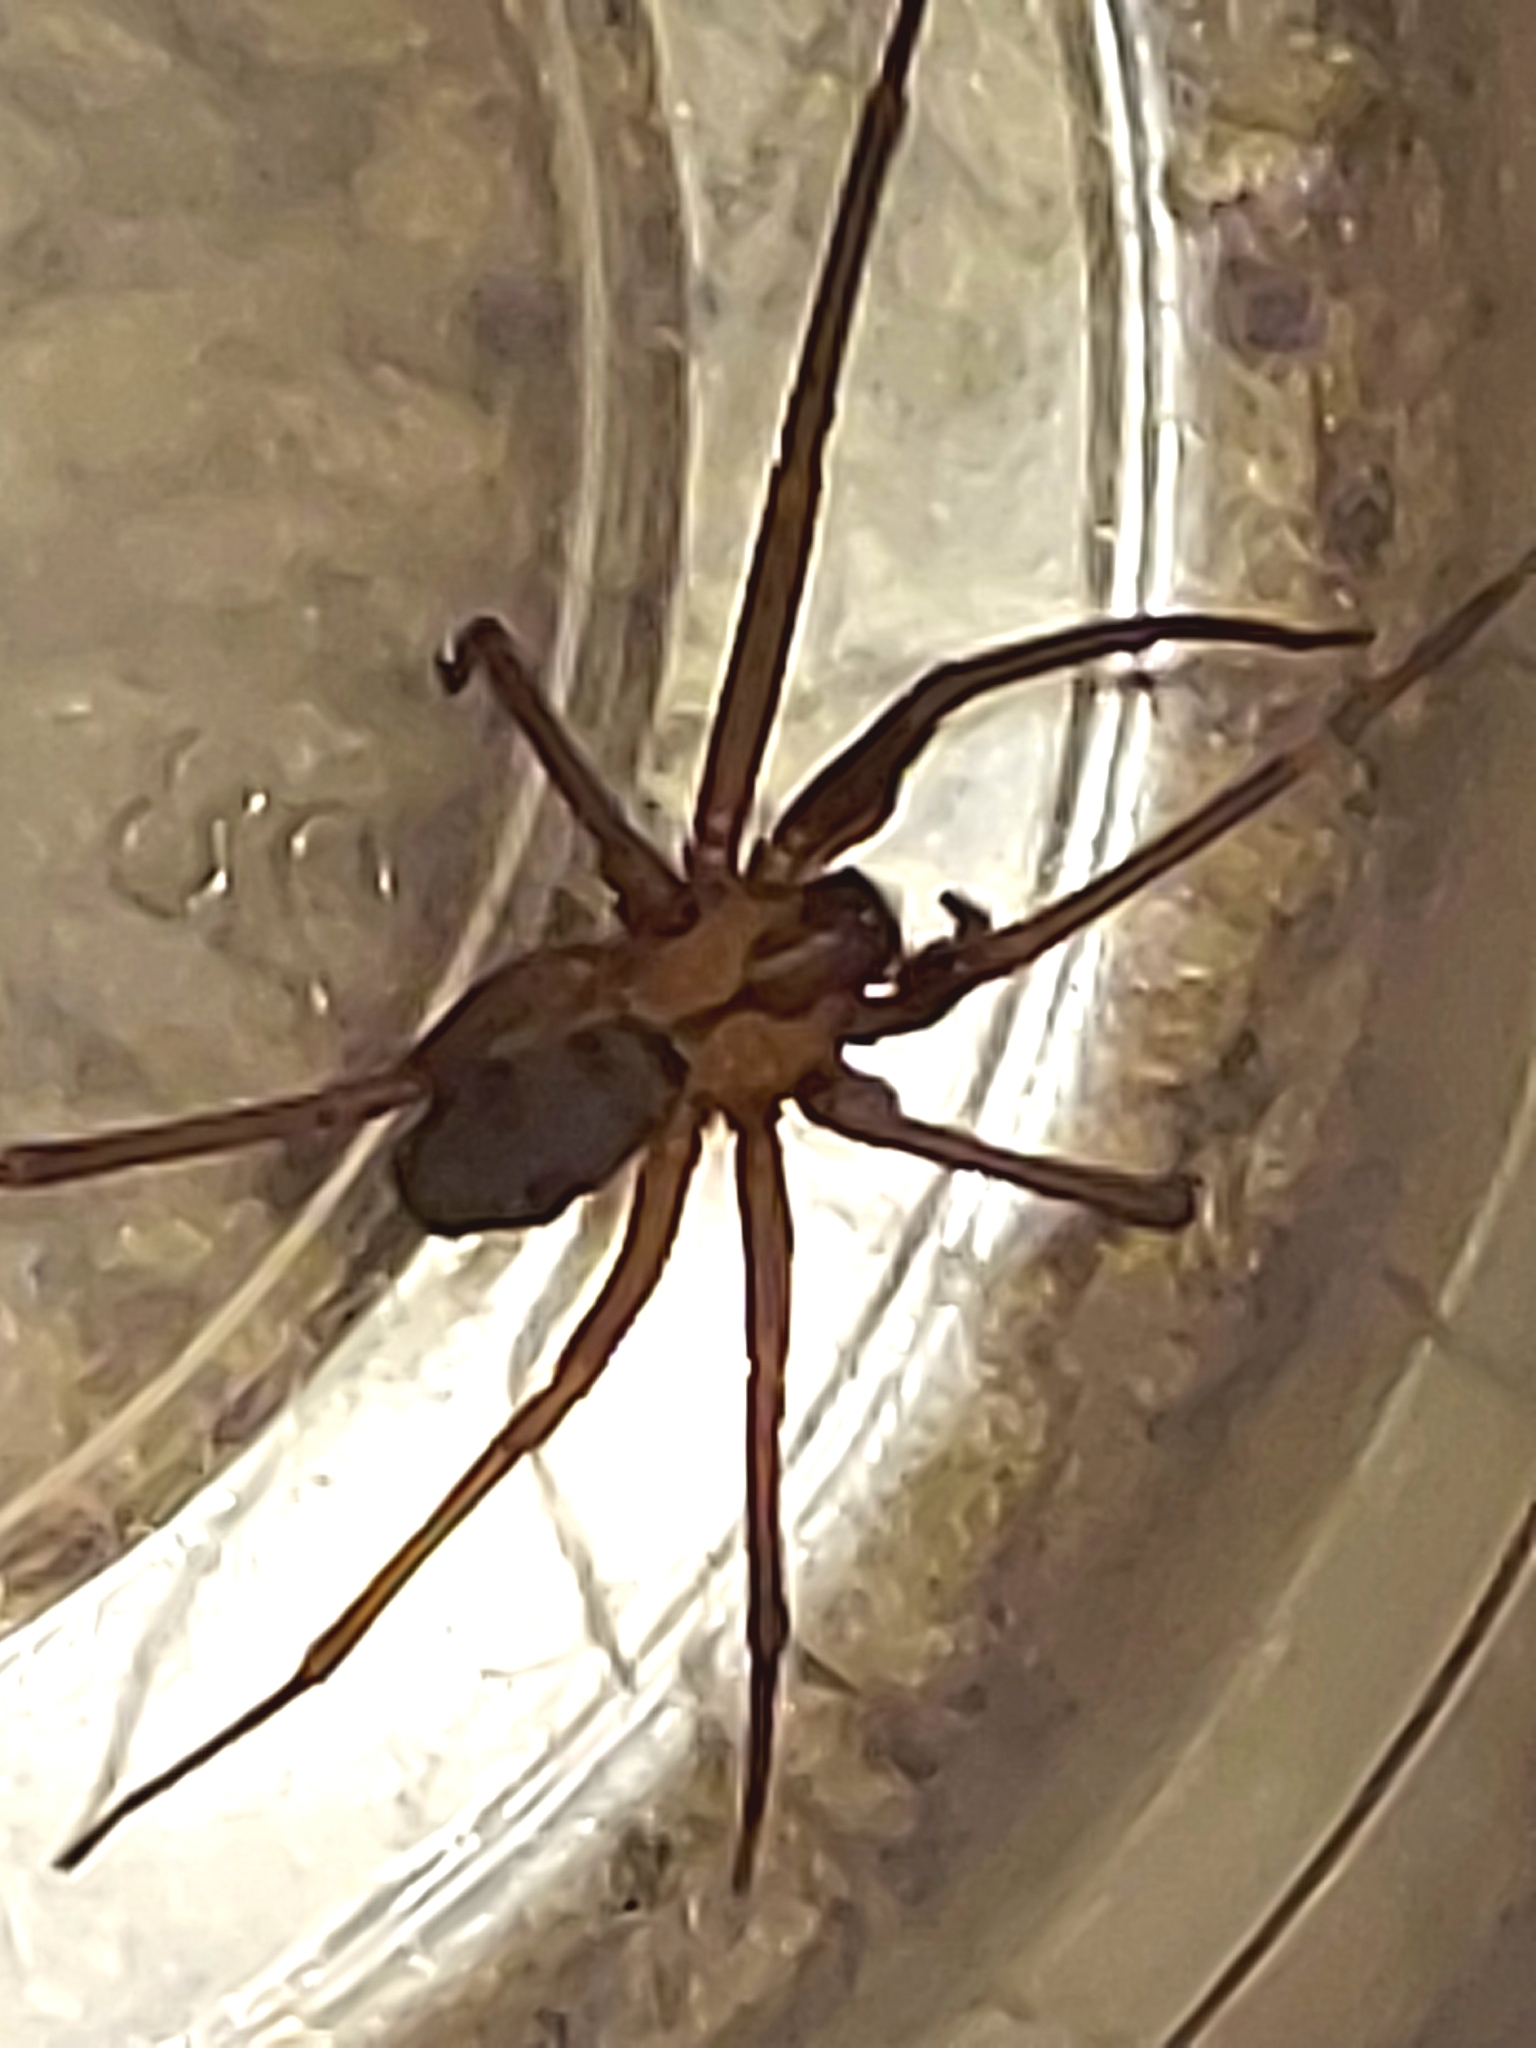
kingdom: Animalia
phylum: Arthropoda
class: Arachnida
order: Araneae
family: Sicariidae
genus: Loxosceles
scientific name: Loxosceles reclusa
